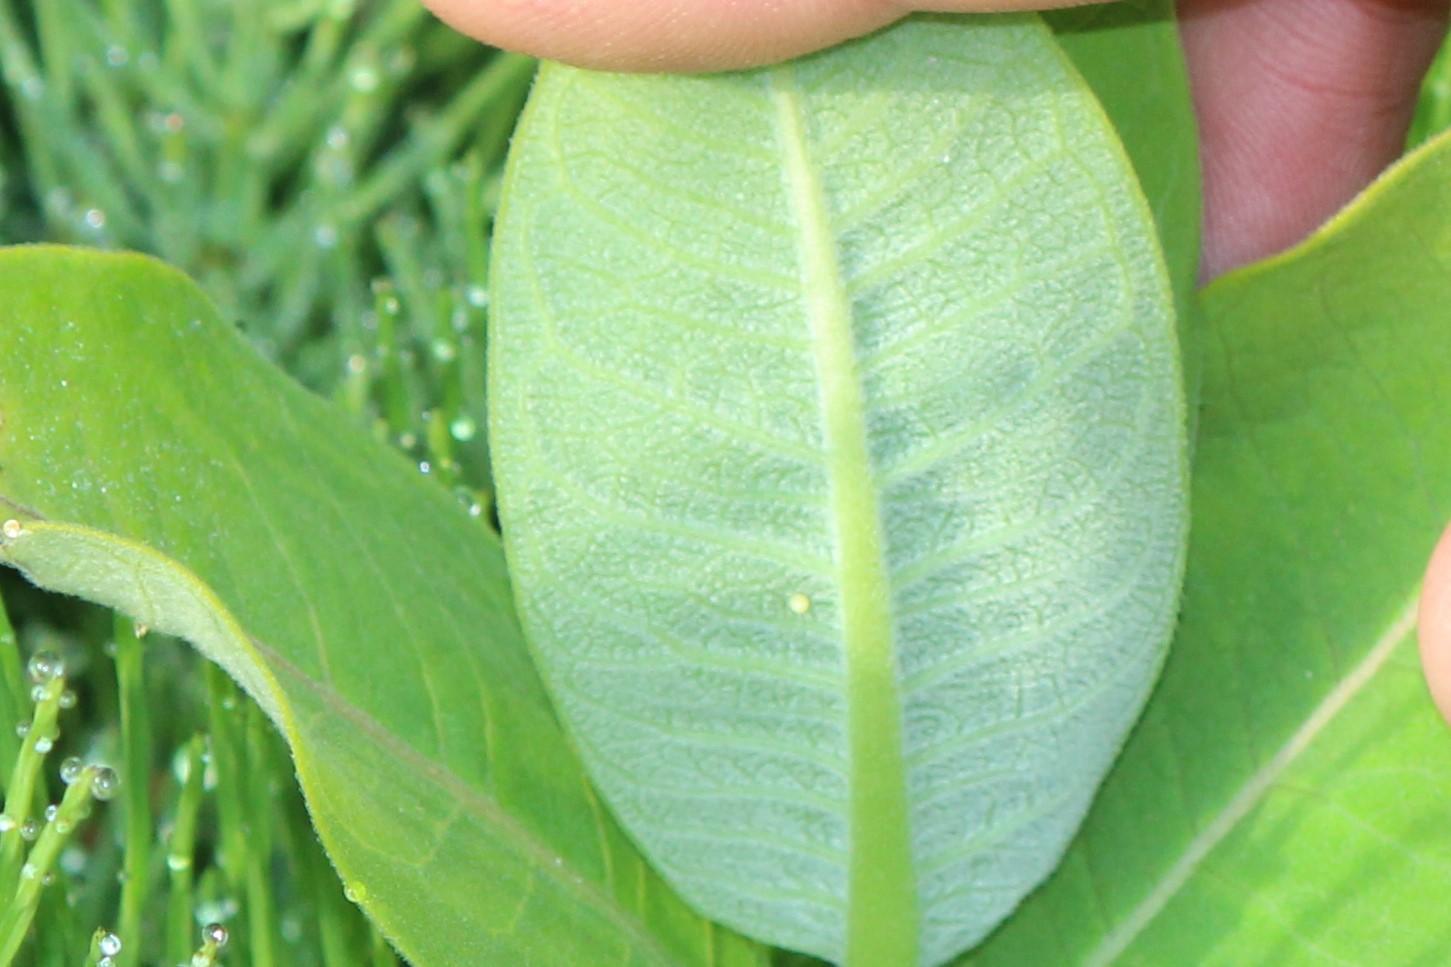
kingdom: Plantae
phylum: Tracheophyta
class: Magnoliopsida
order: Gentianales
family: Apocynaceae
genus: Asclepias
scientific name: Asclepias syriaca
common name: Common milkweed
